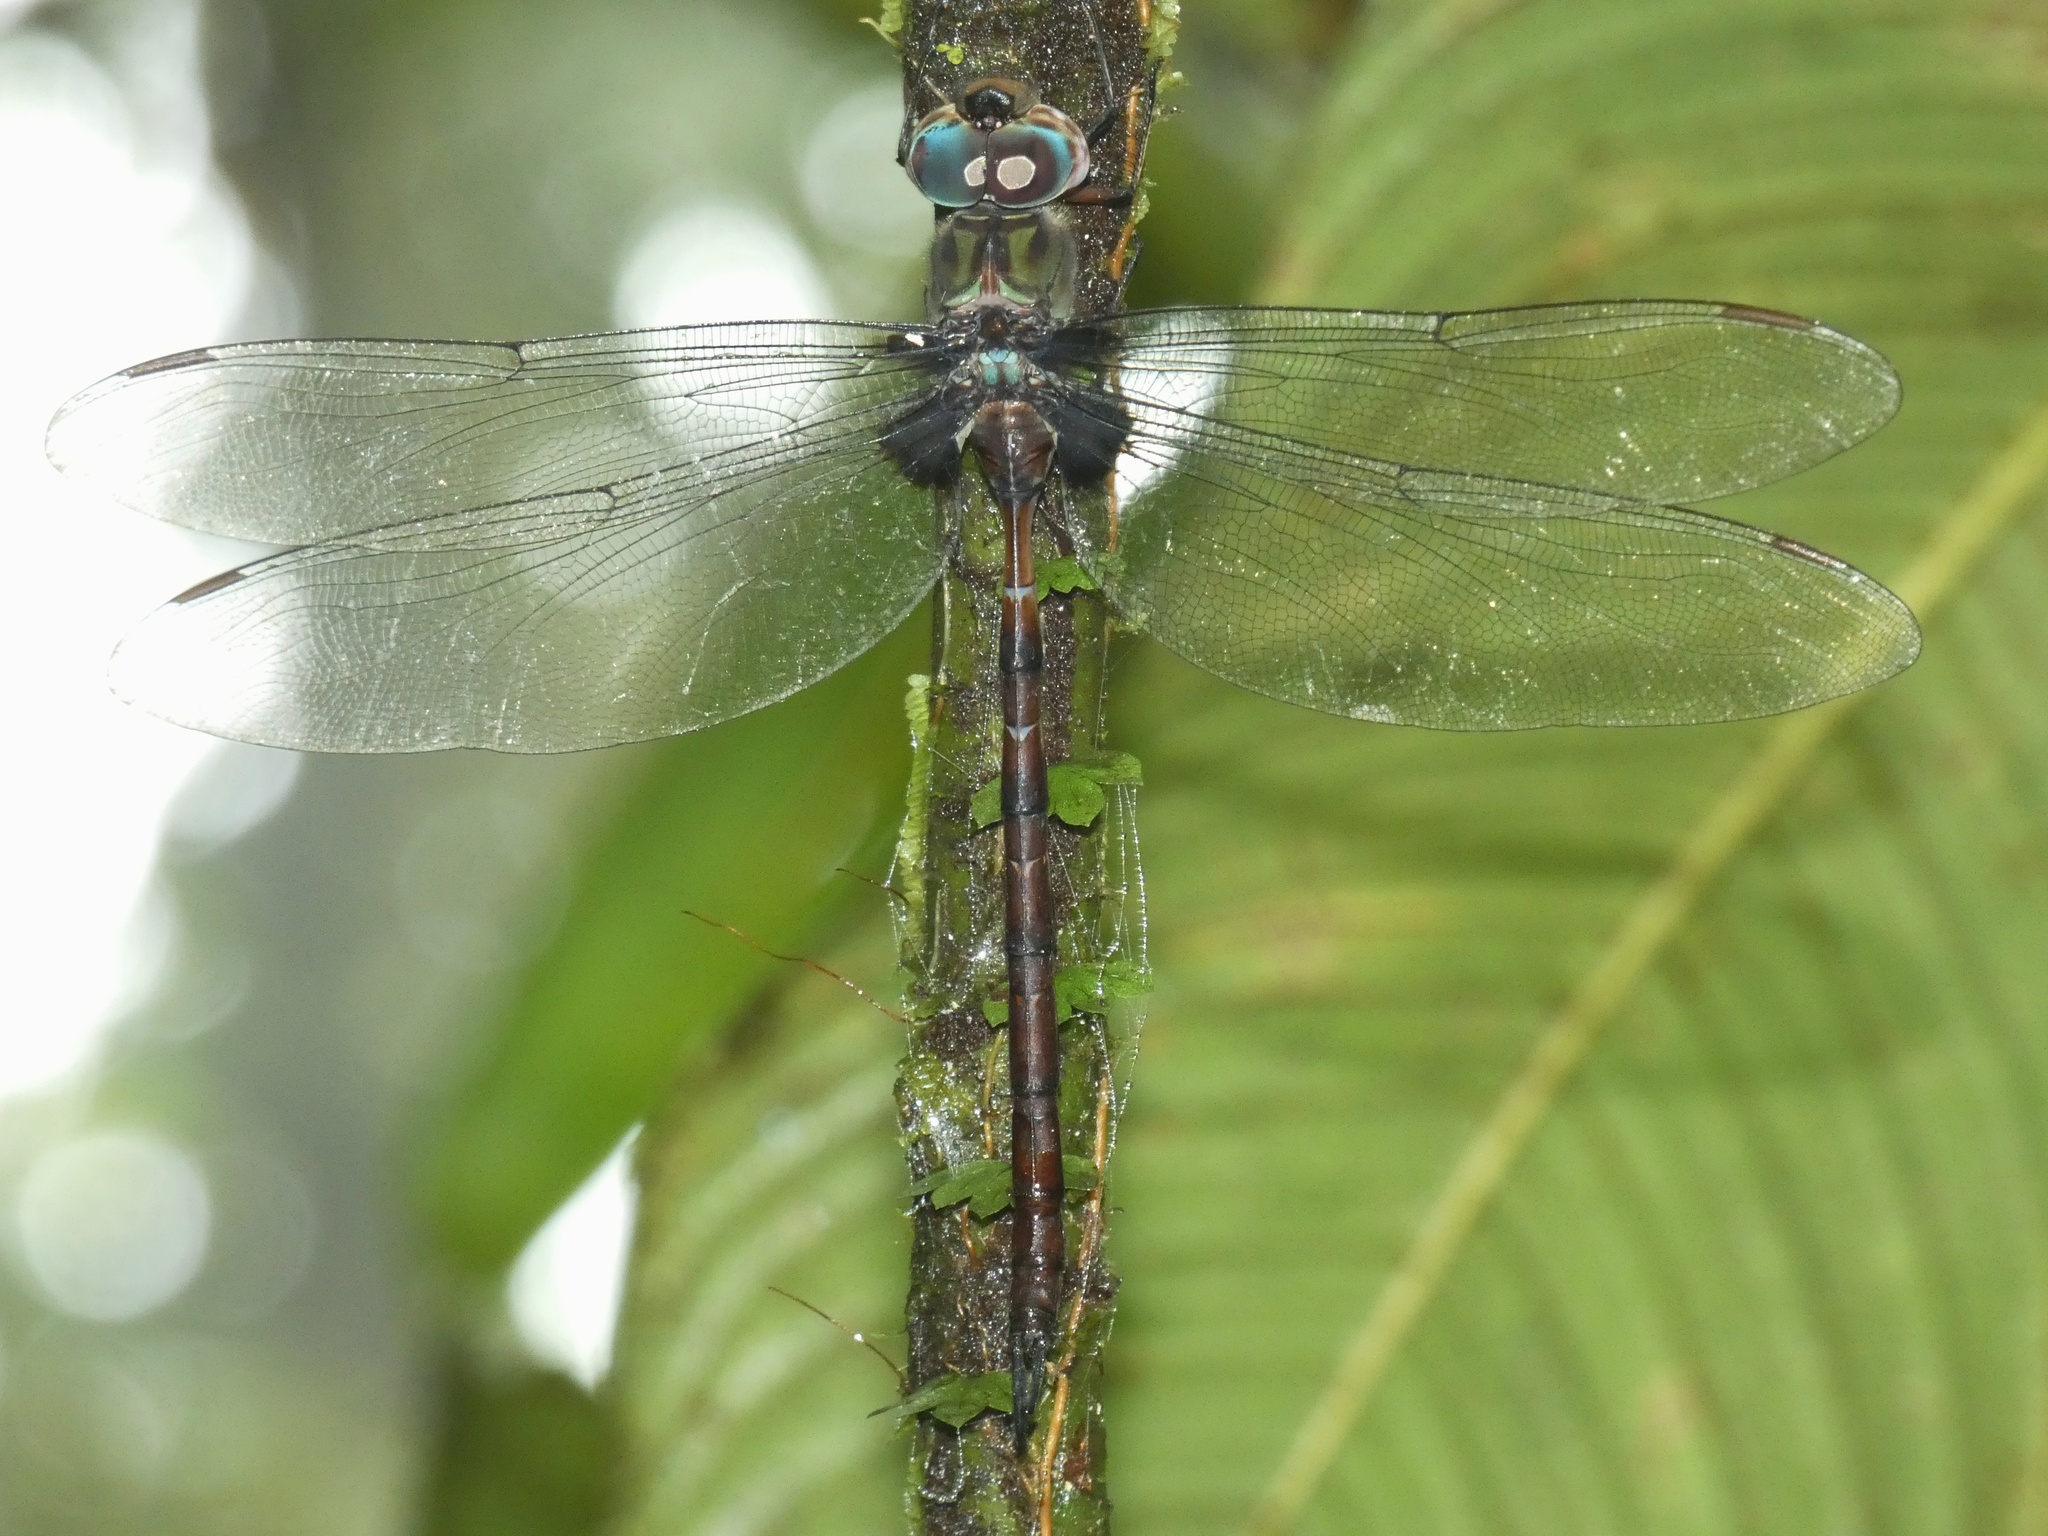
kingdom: Animalia
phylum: Arthropoda
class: Insecta
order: Odonata
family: Aeshnidae
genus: Gynacantha
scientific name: Gynacantha membranalis
